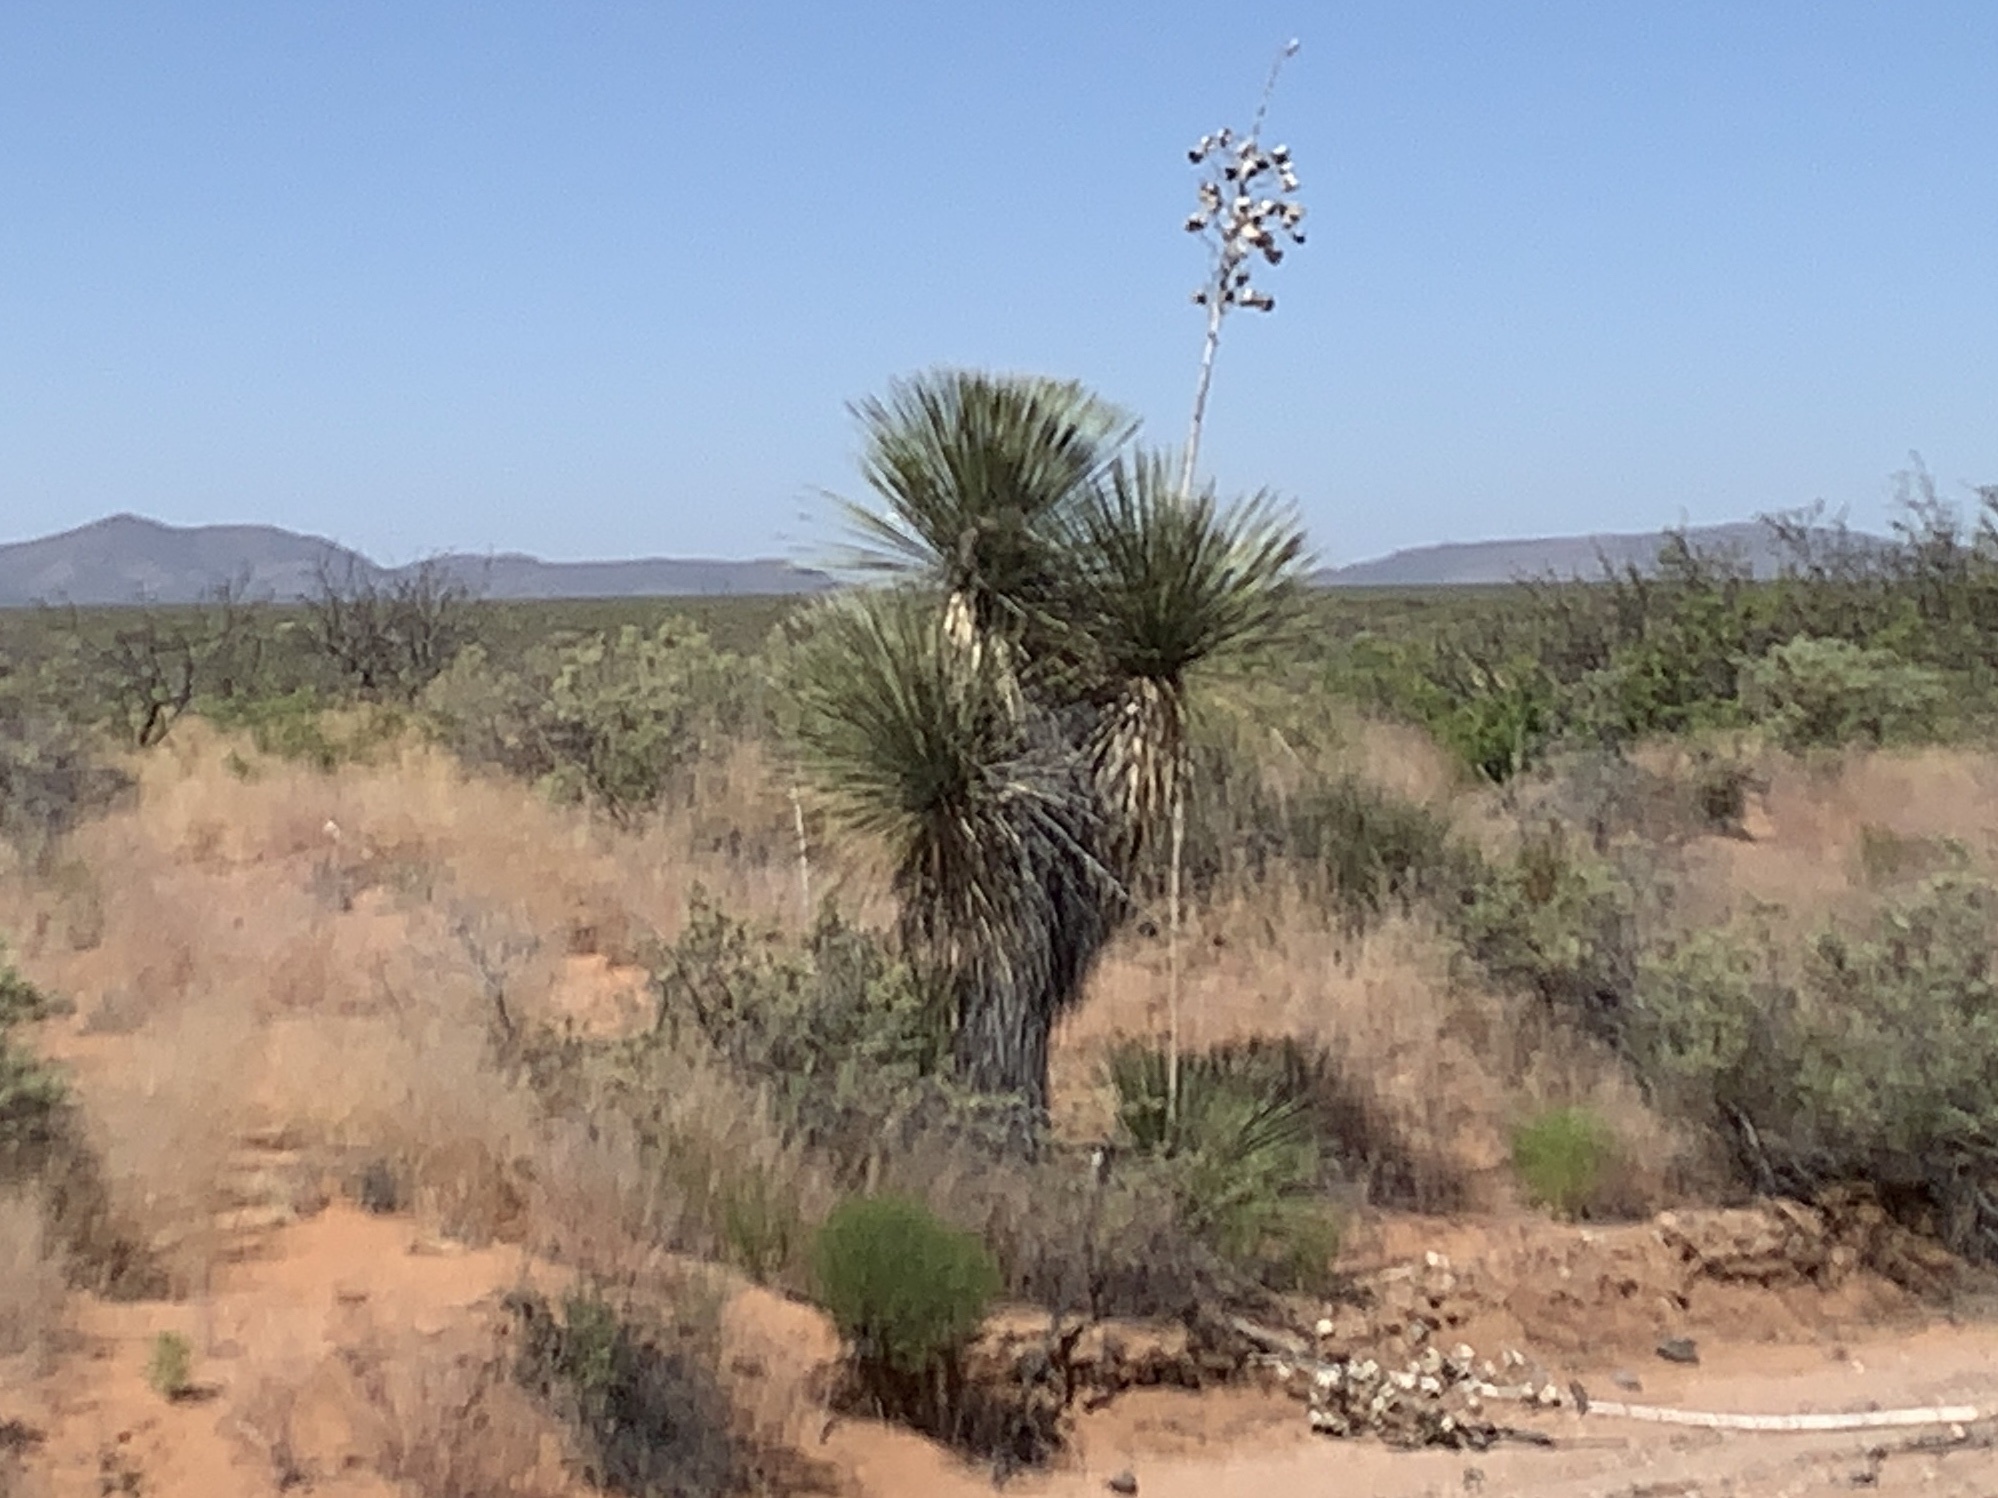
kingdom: Plantae
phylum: Tracheophyta
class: Liliopsida
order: Asparagales
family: Asparagaceae
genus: Yucca
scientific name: Yucca elata
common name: Palmella
